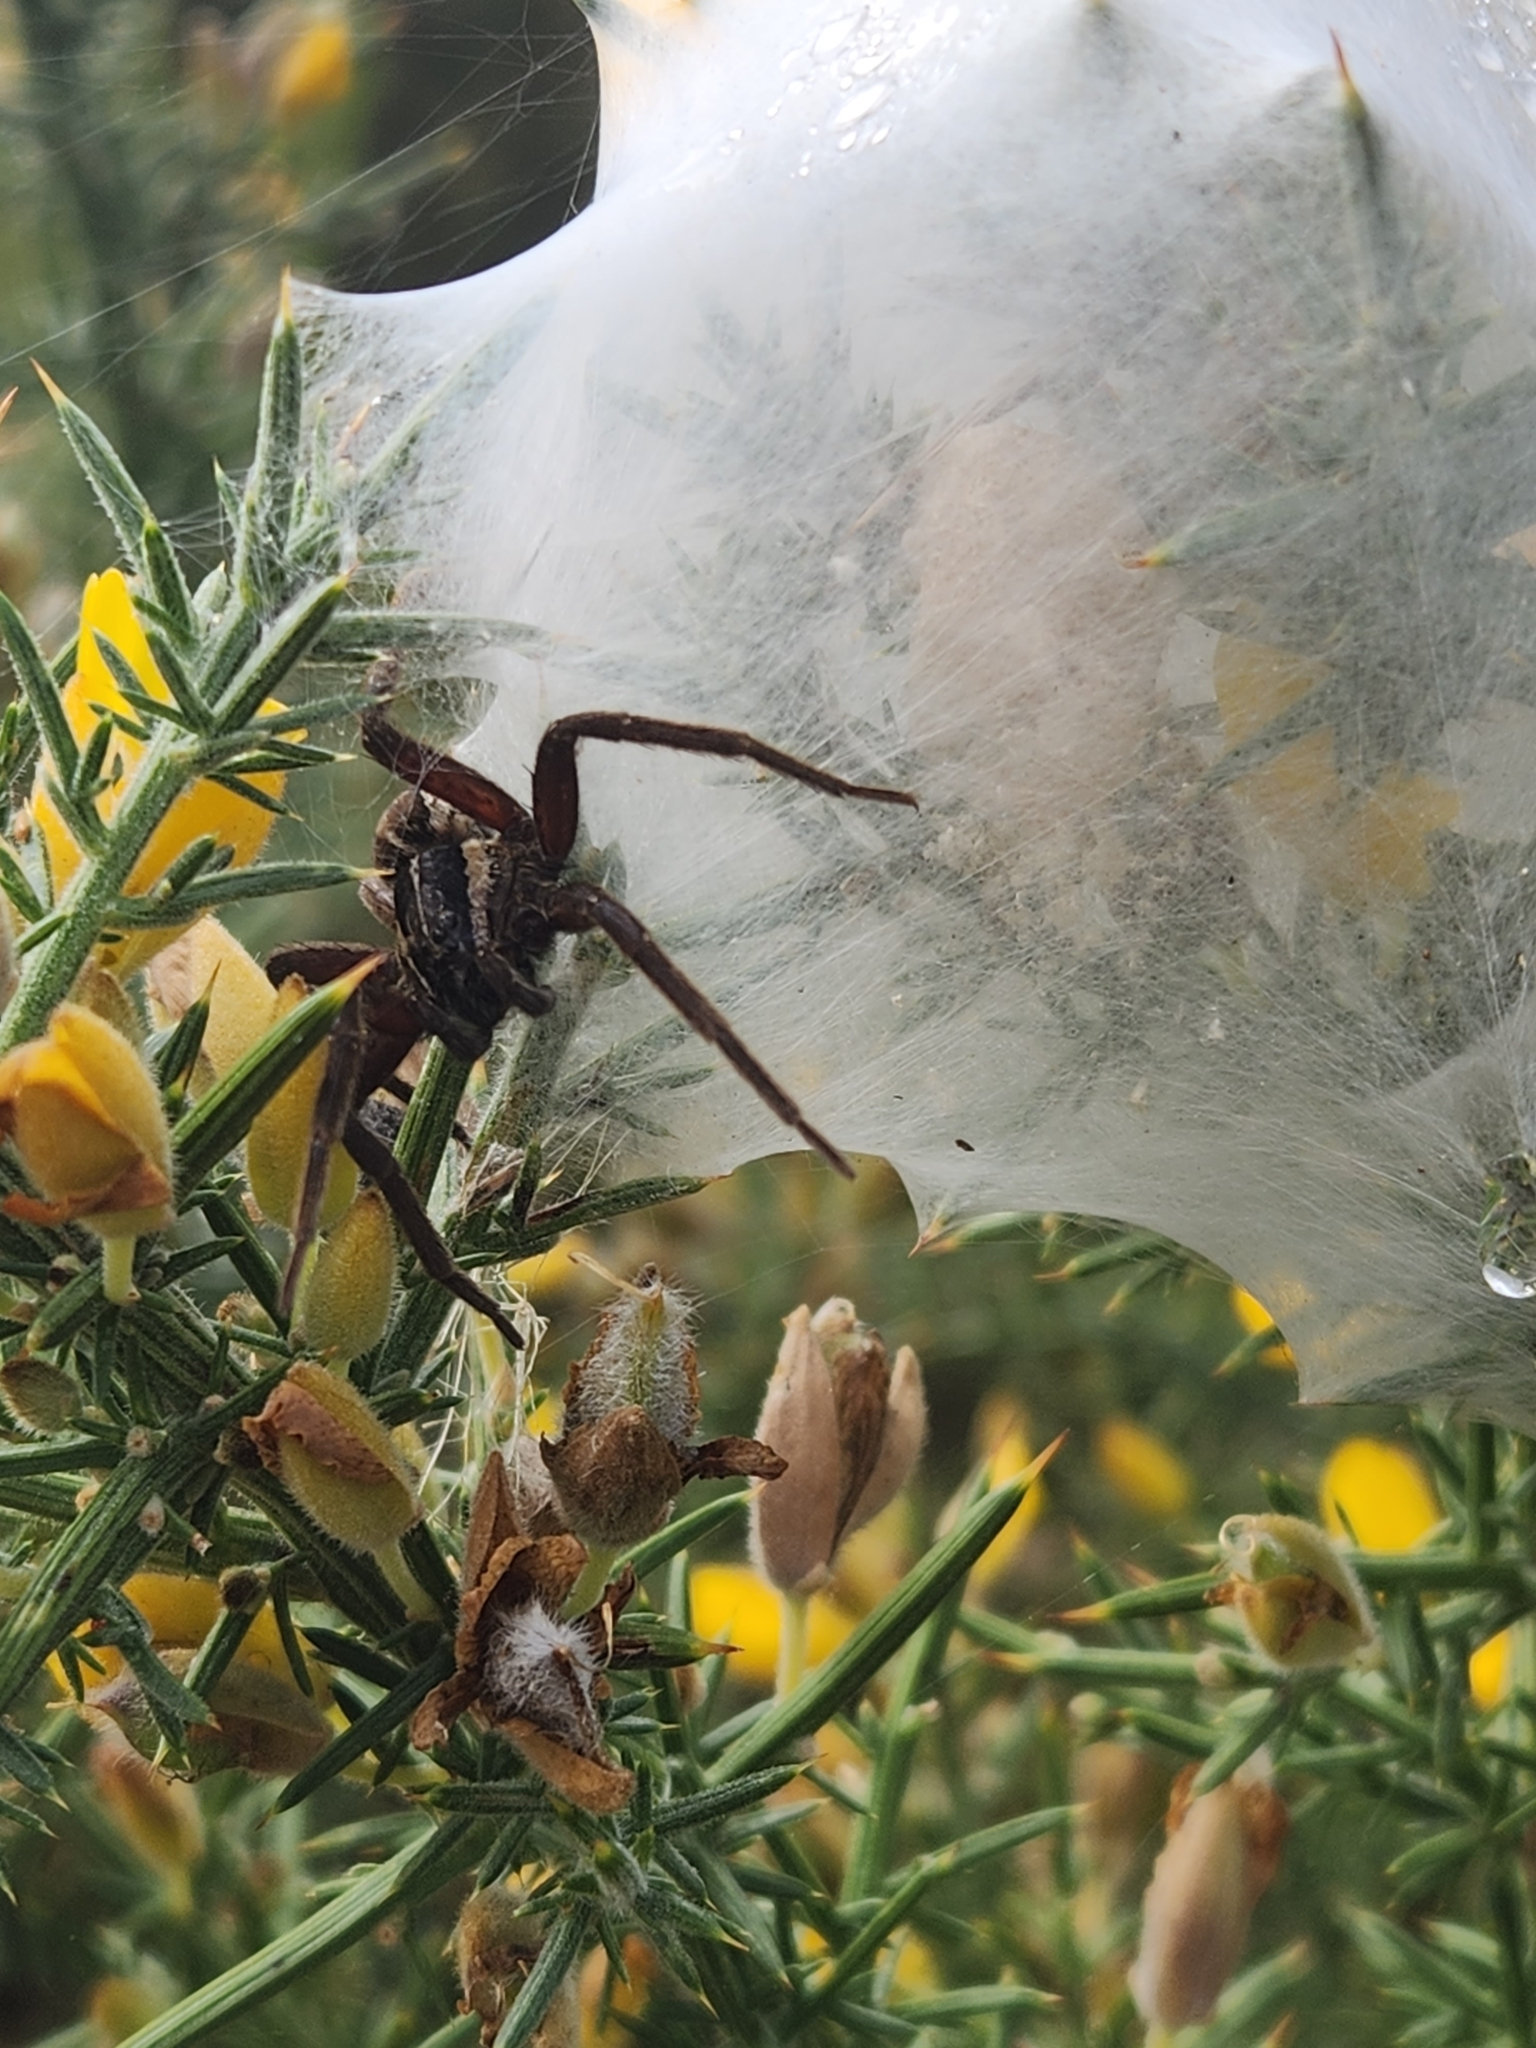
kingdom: Animalia
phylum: Arthropoda
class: Arachnida
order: Araneae
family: Pisauridae
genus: Dolomedes
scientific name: Dolomedes minor
